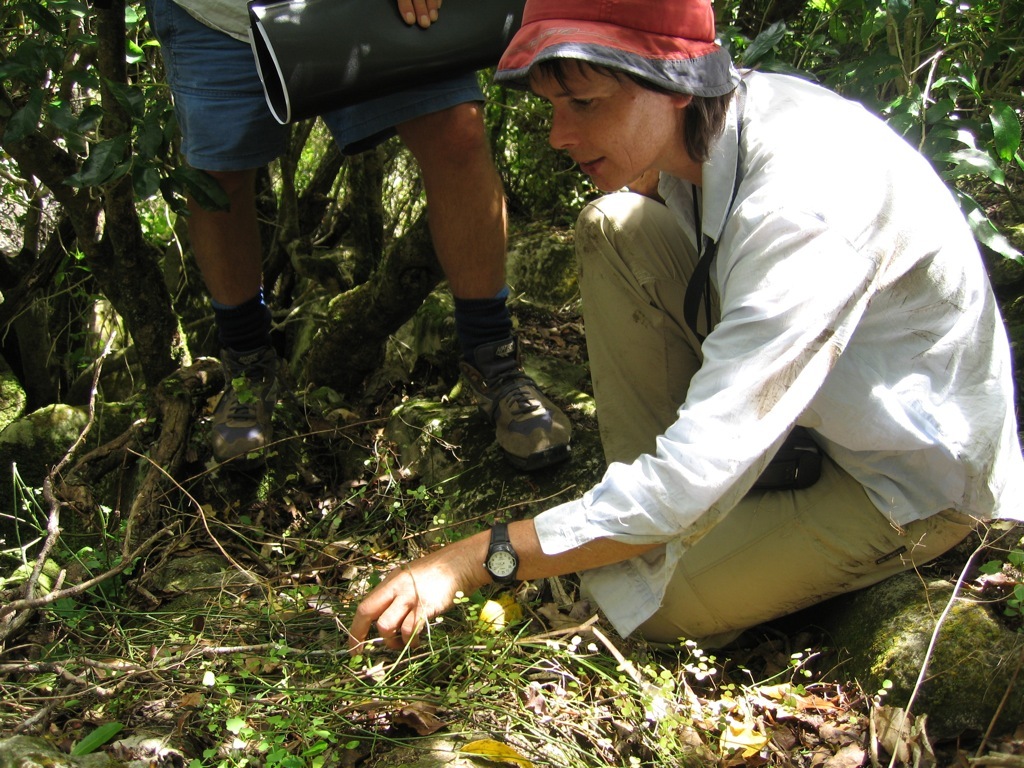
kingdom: Plantae
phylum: Tracheophyta
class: Magnoliopsida
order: Fabales
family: Fabaceae
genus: Carmichaelia
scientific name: Carmichaelia kirkii
